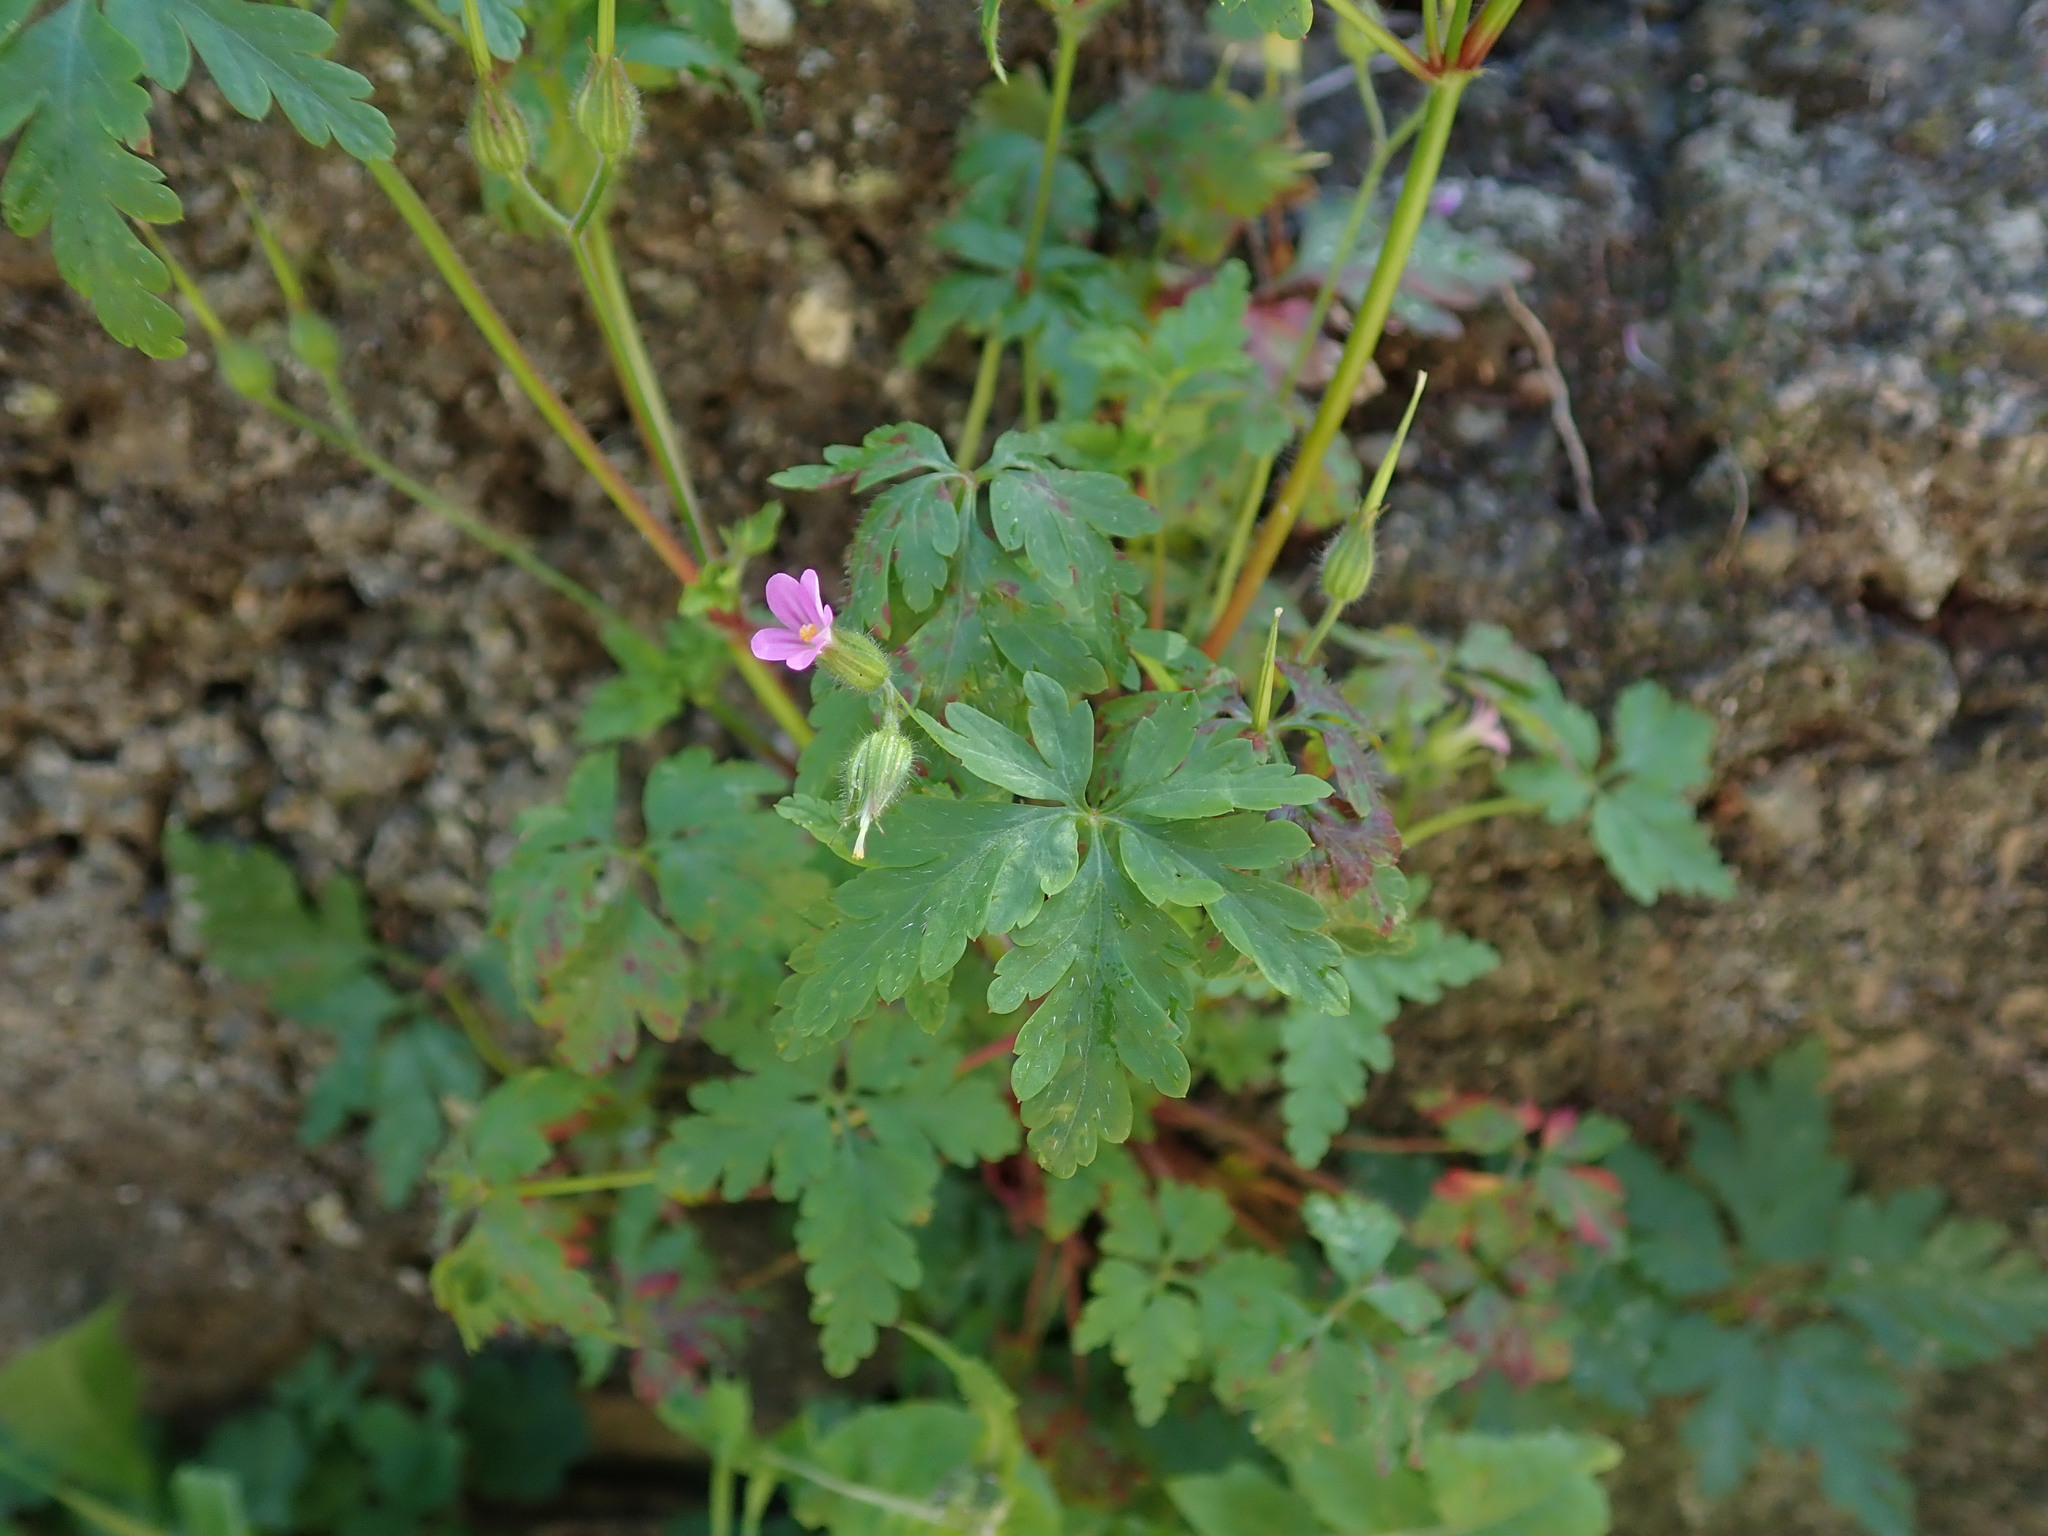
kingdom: Plantae
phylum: Tracheophyta
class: Magnoliopsida
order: Geraniales
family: Geraniaceae
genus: Geranium
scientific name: Geranium purpureum
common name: Little-robin
